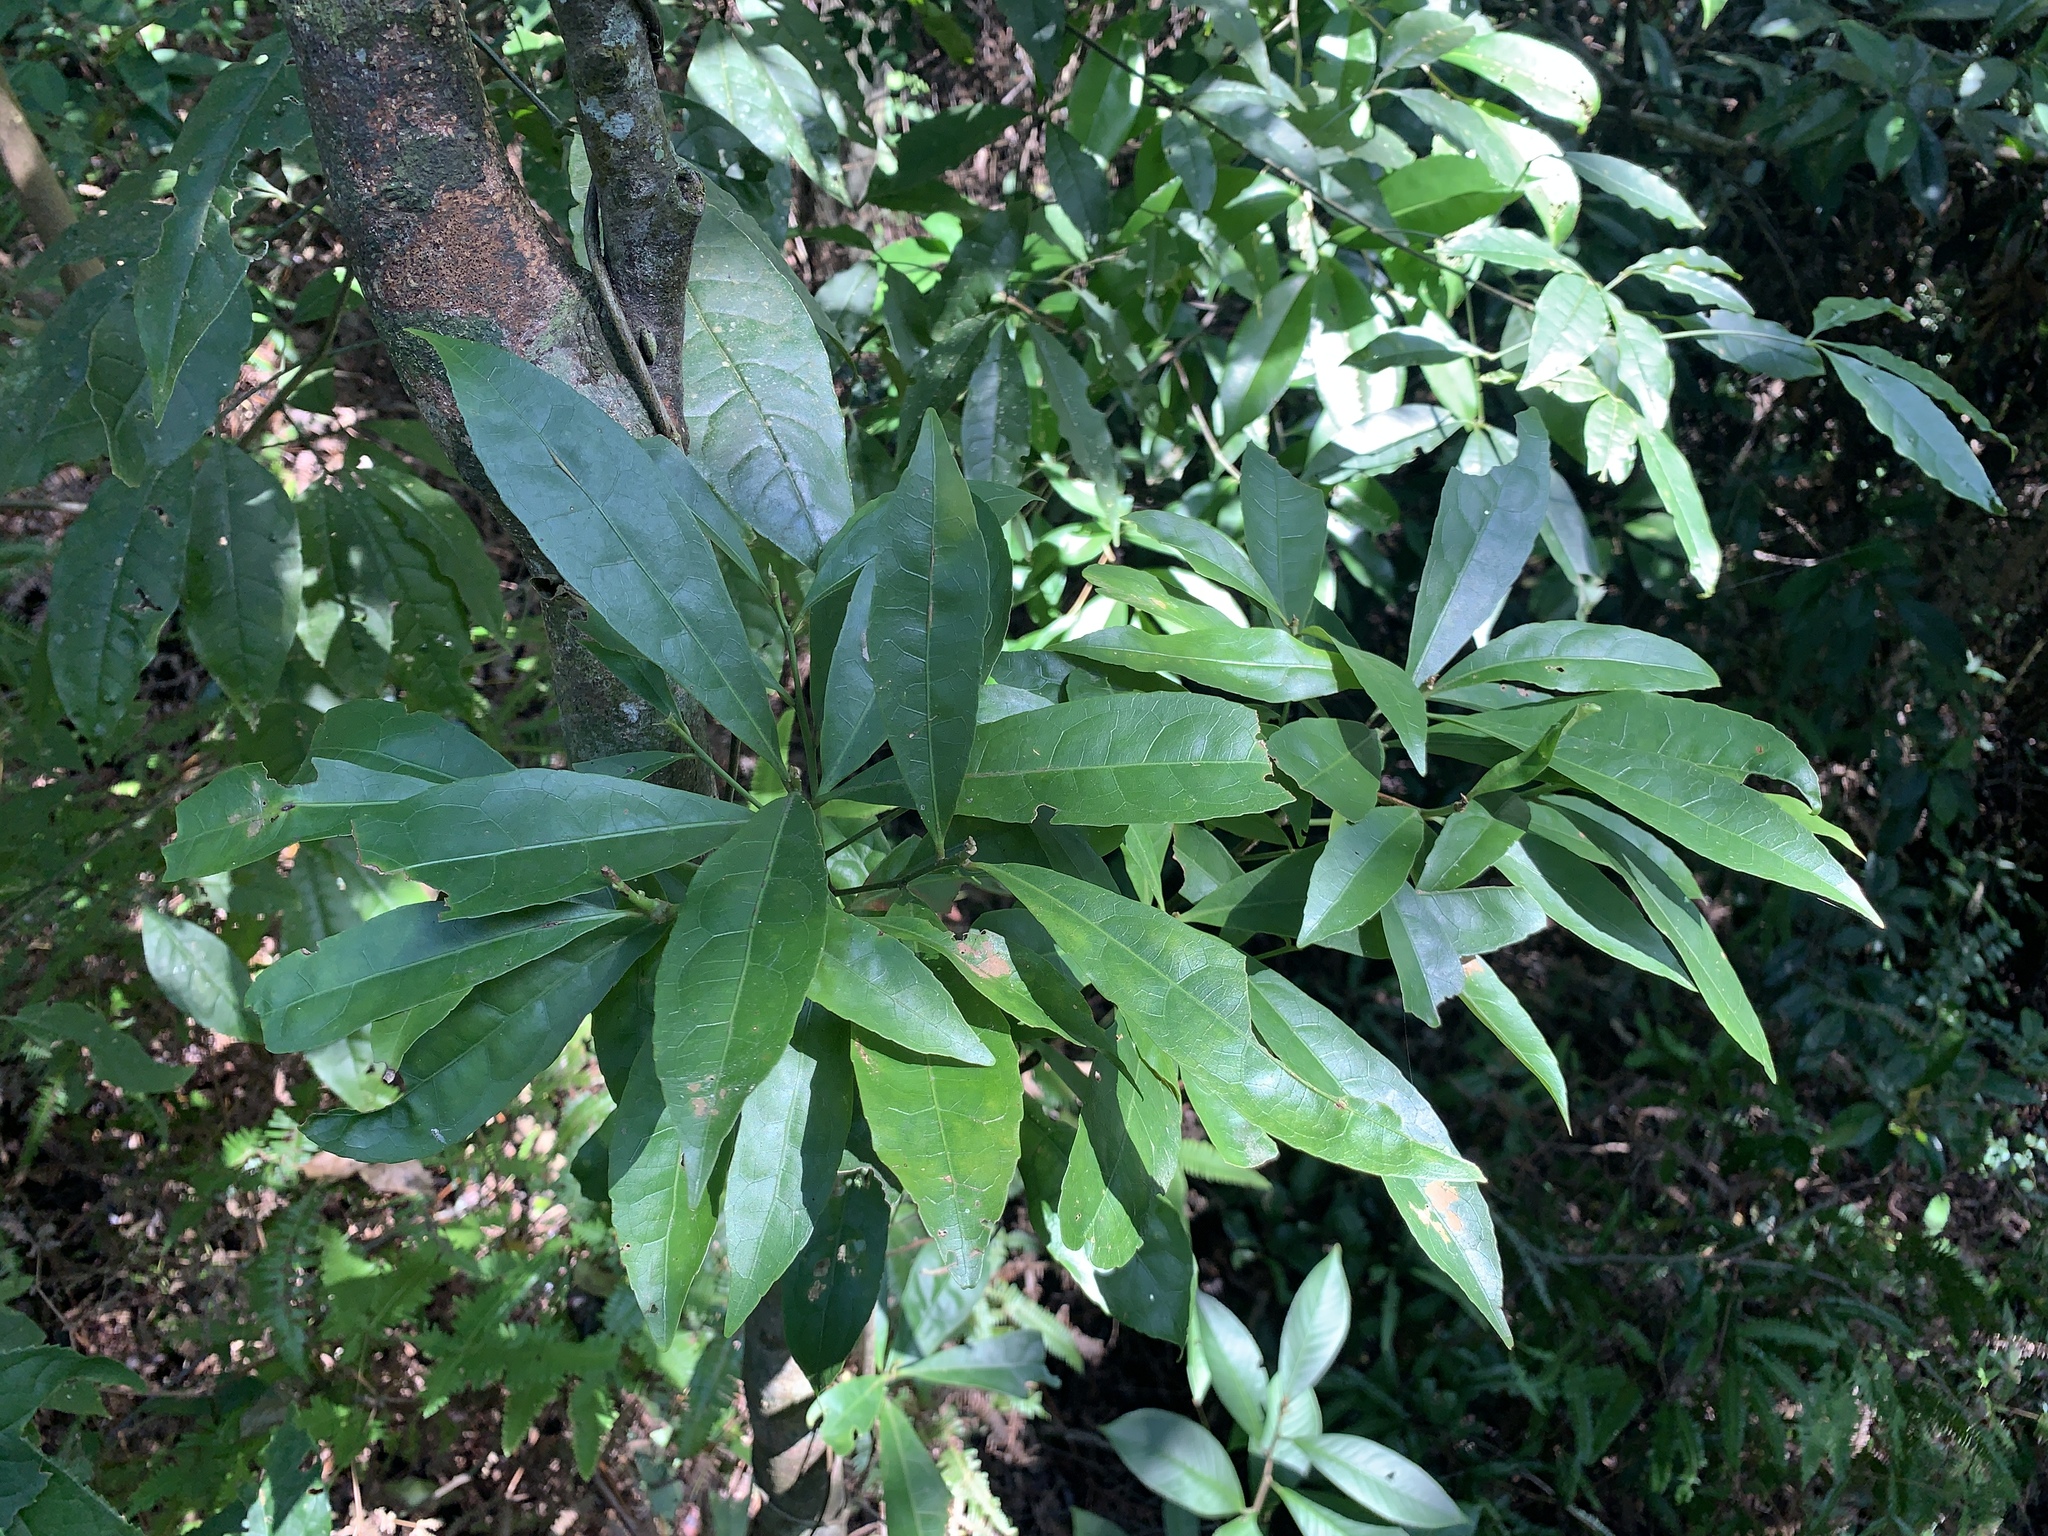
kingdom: Plantae
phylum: Tracheophyta
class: Magnoliopsida
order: Oxalidales
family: Elaeocarpaceae
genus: Elaeocarpus
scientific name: Elaeocarpus decipiens
